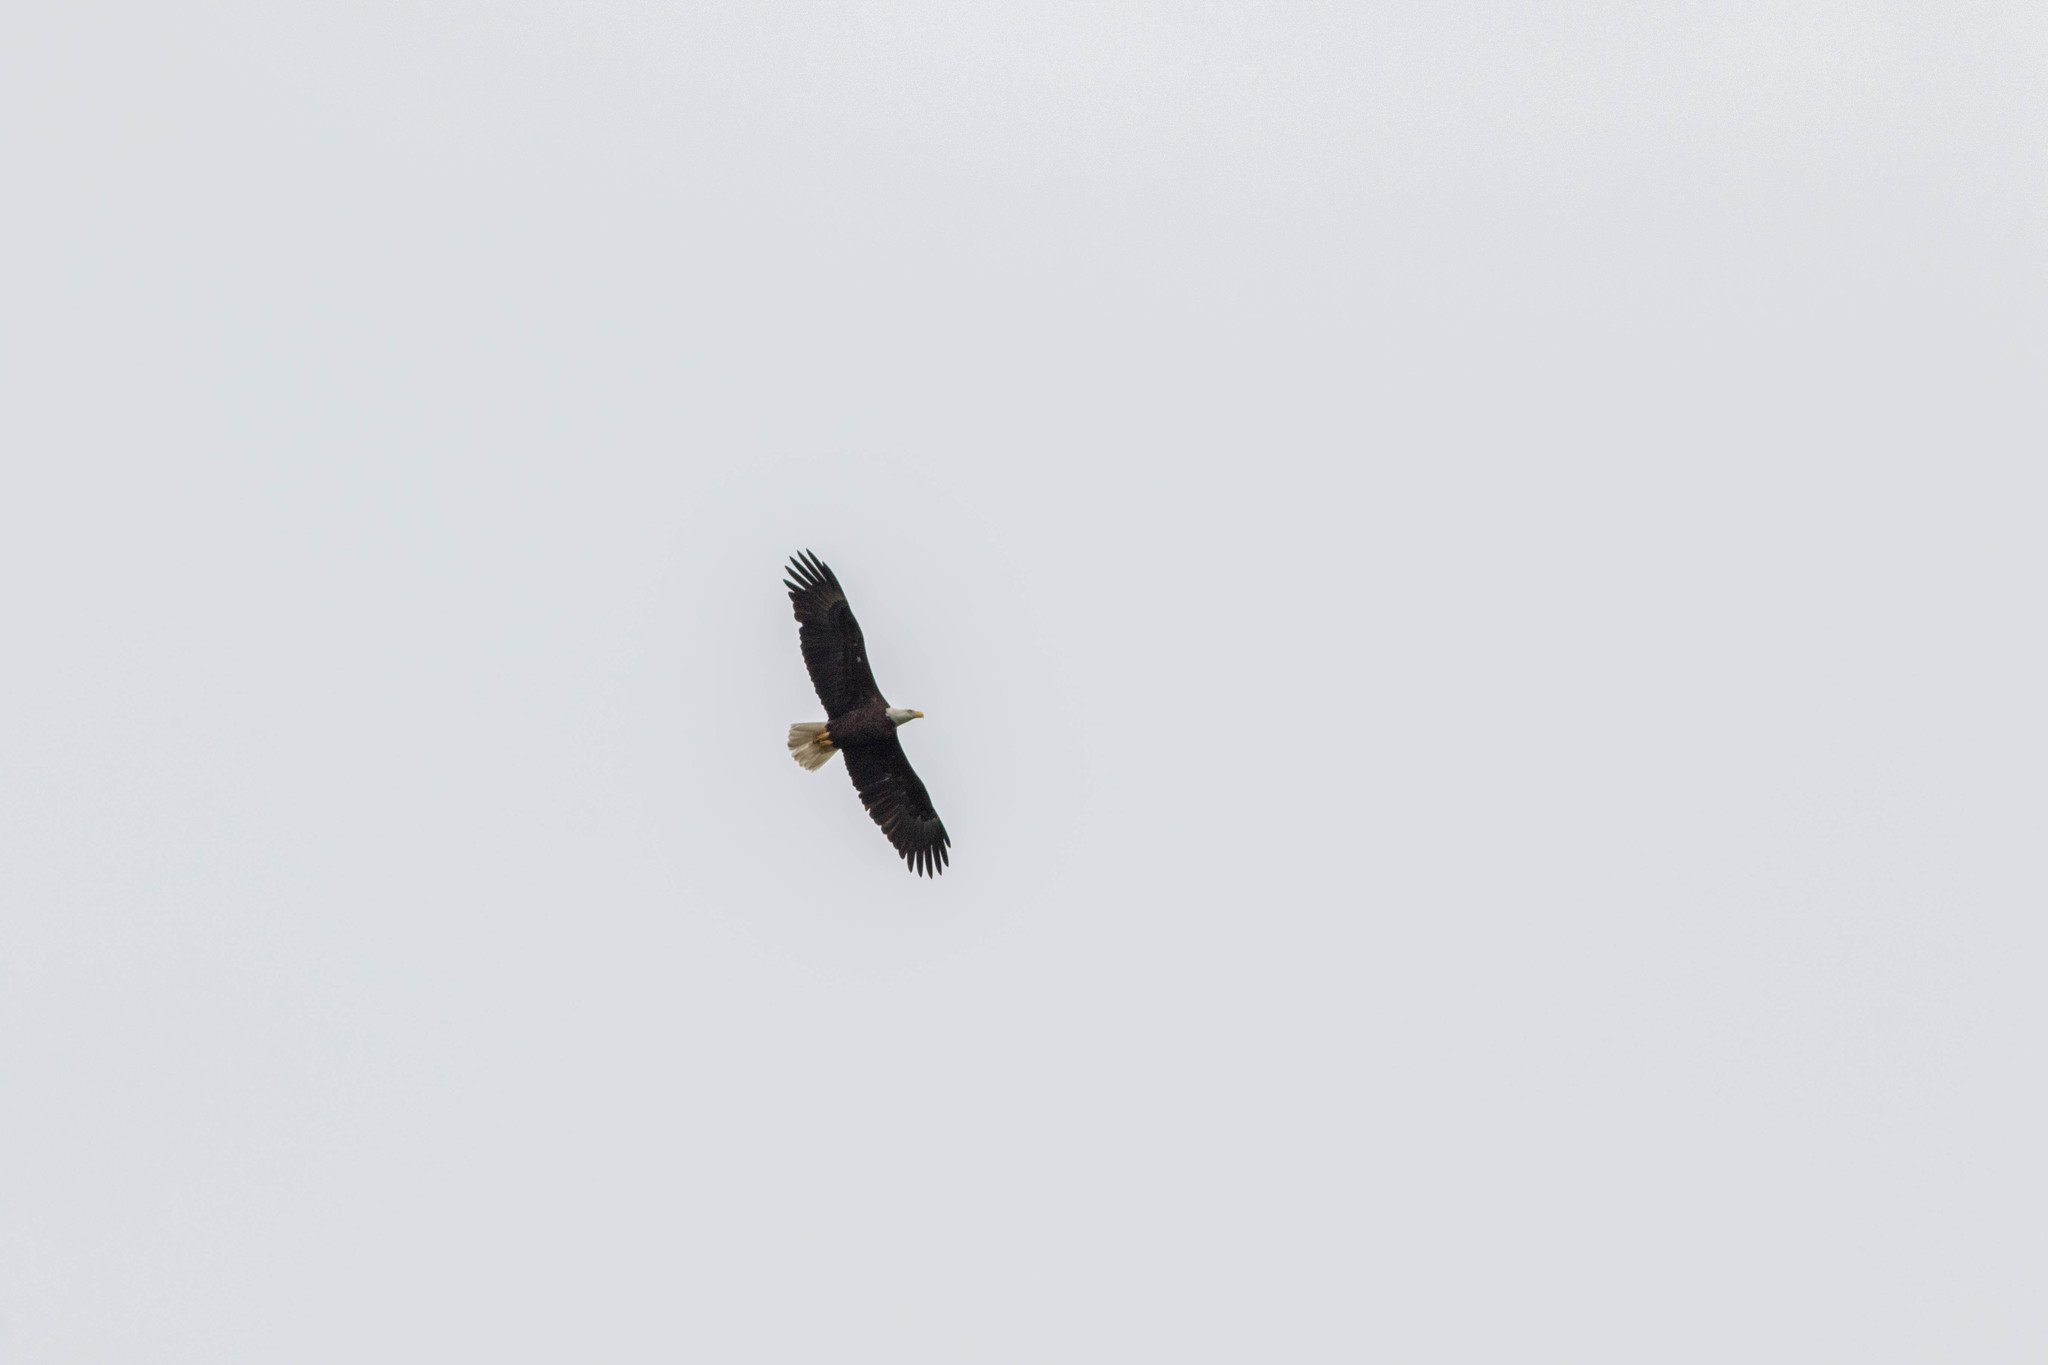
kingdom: Animalia
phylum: Chordata
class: Aves
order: Accipitriformes
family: Accipitridae
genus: Haliaeetus
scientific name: Haliaeetus leucocephalus
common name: Bald eagle
